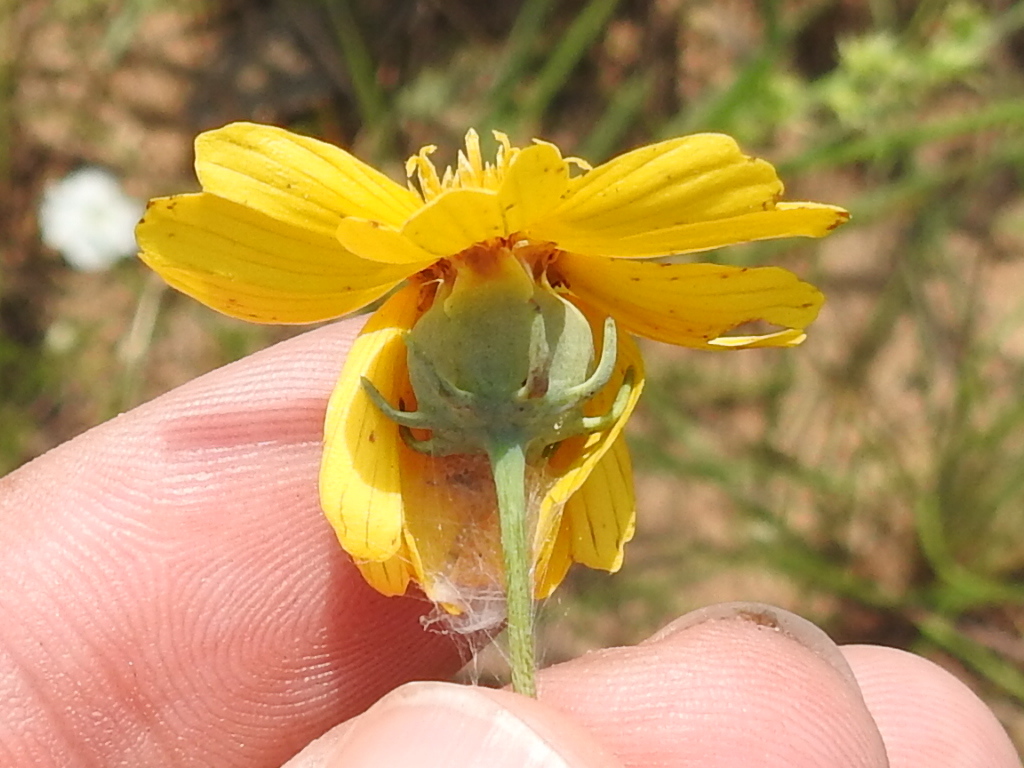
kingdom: Plantae
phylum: Tracheophyta
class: Magnoliopsida
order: Asterales
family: Asteraceae
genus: Thelesperma
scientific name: Thelesperma flavodiscum
